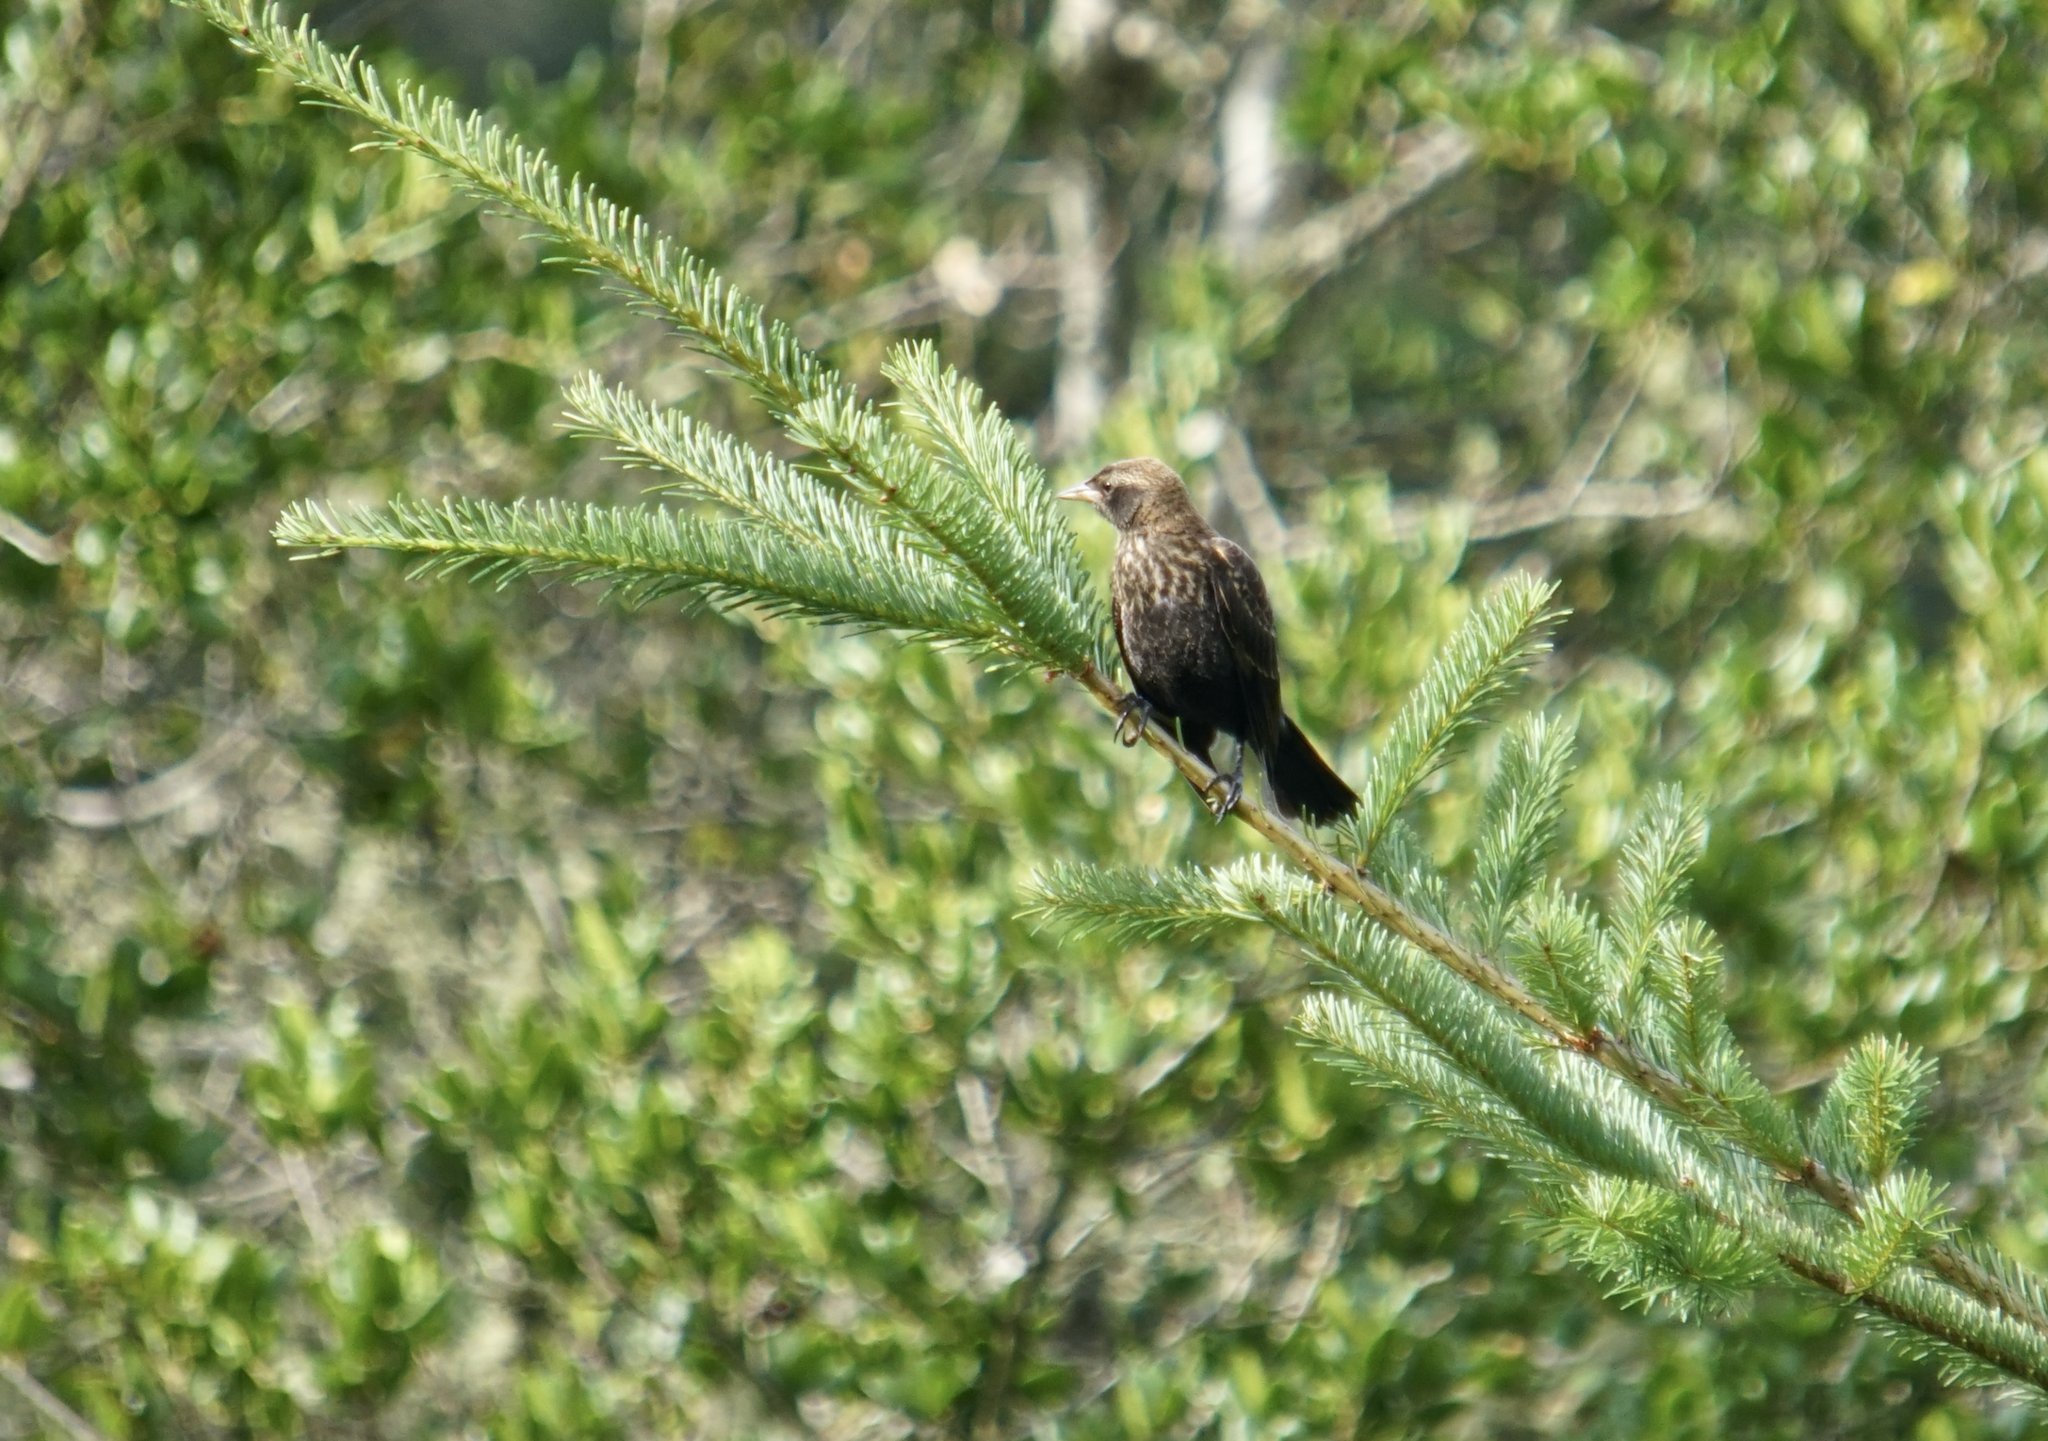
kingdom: Animalia
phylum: Chordata
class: Aves
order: Passeriformes
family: Icteridae
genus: Agelaius
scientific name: Agelaius phoeniceus
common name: Red-winged blackbird
